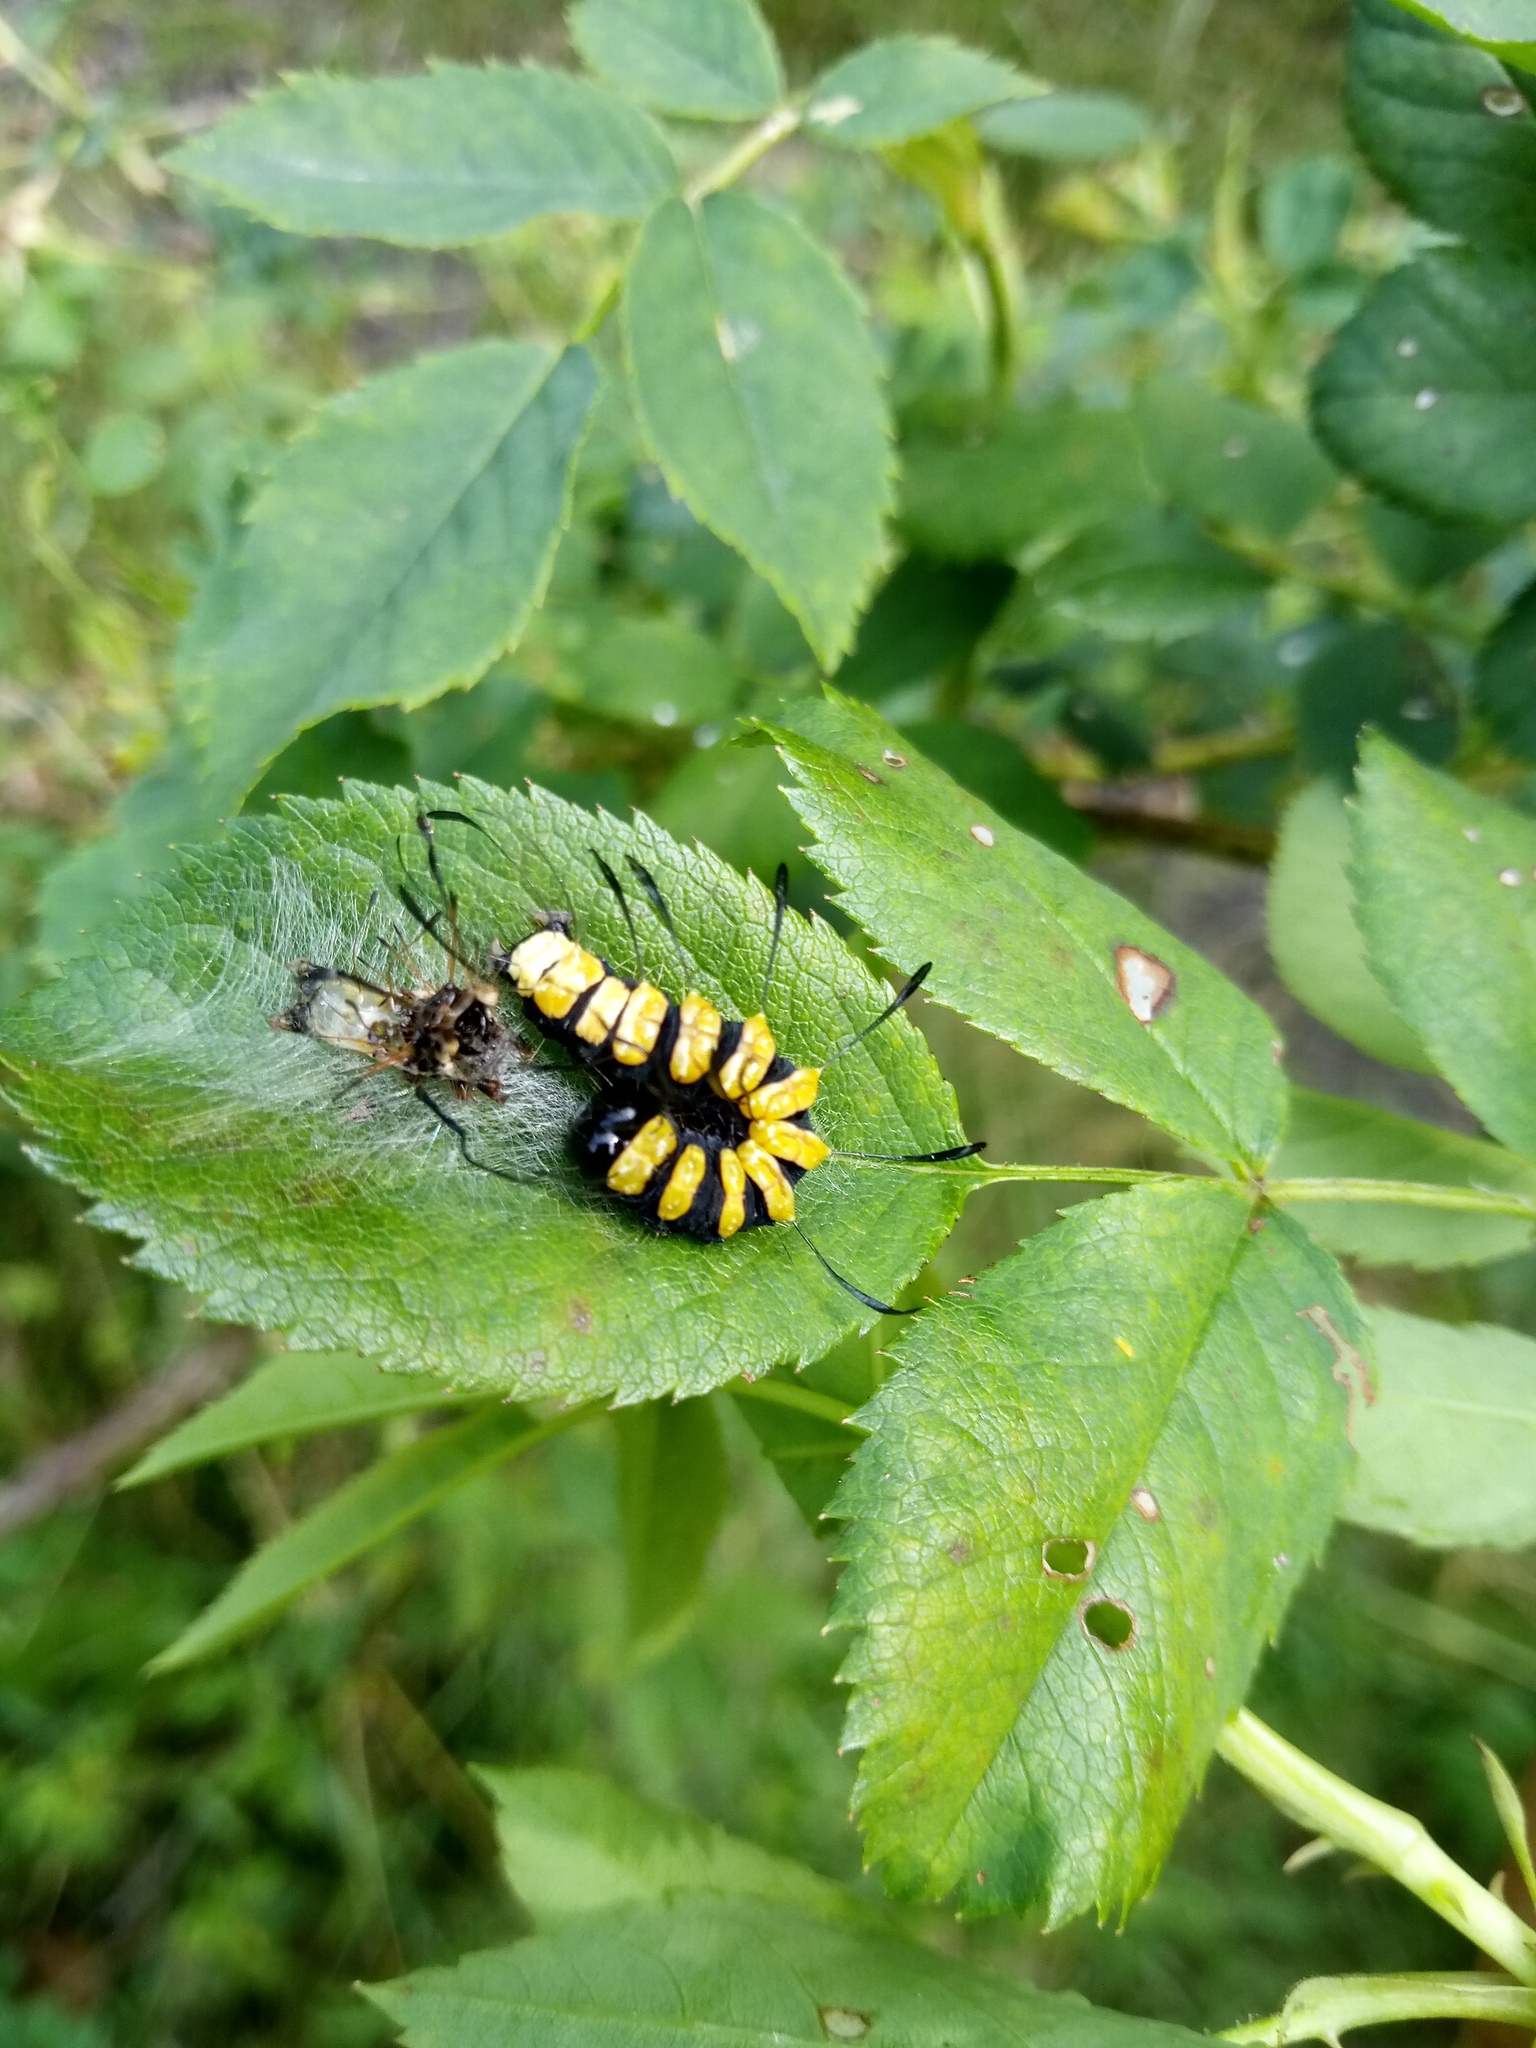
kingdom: Animalia
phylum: Arthropoda
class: Insecta
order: Lepidoptera
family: Noctuidae
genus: Acronicta
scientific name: Acronicta alni
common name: Alder moth
